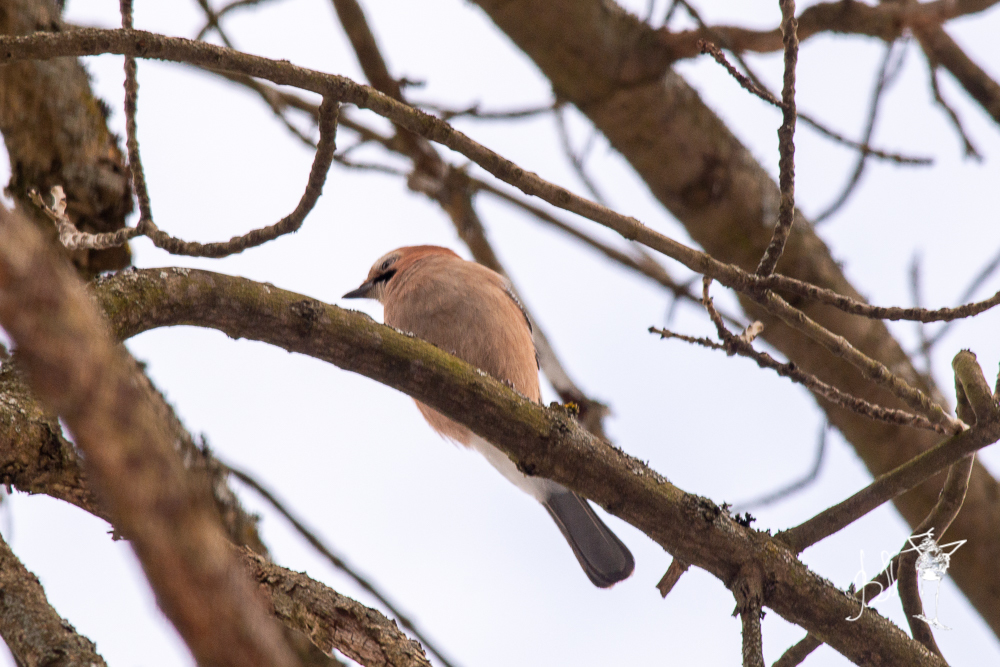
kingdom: Animalia
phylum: Chordata
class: Aves
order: Passeriformes
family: Corvidae
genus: Garrulus
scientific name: Garrulus glandarius
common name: Eurasian jay
